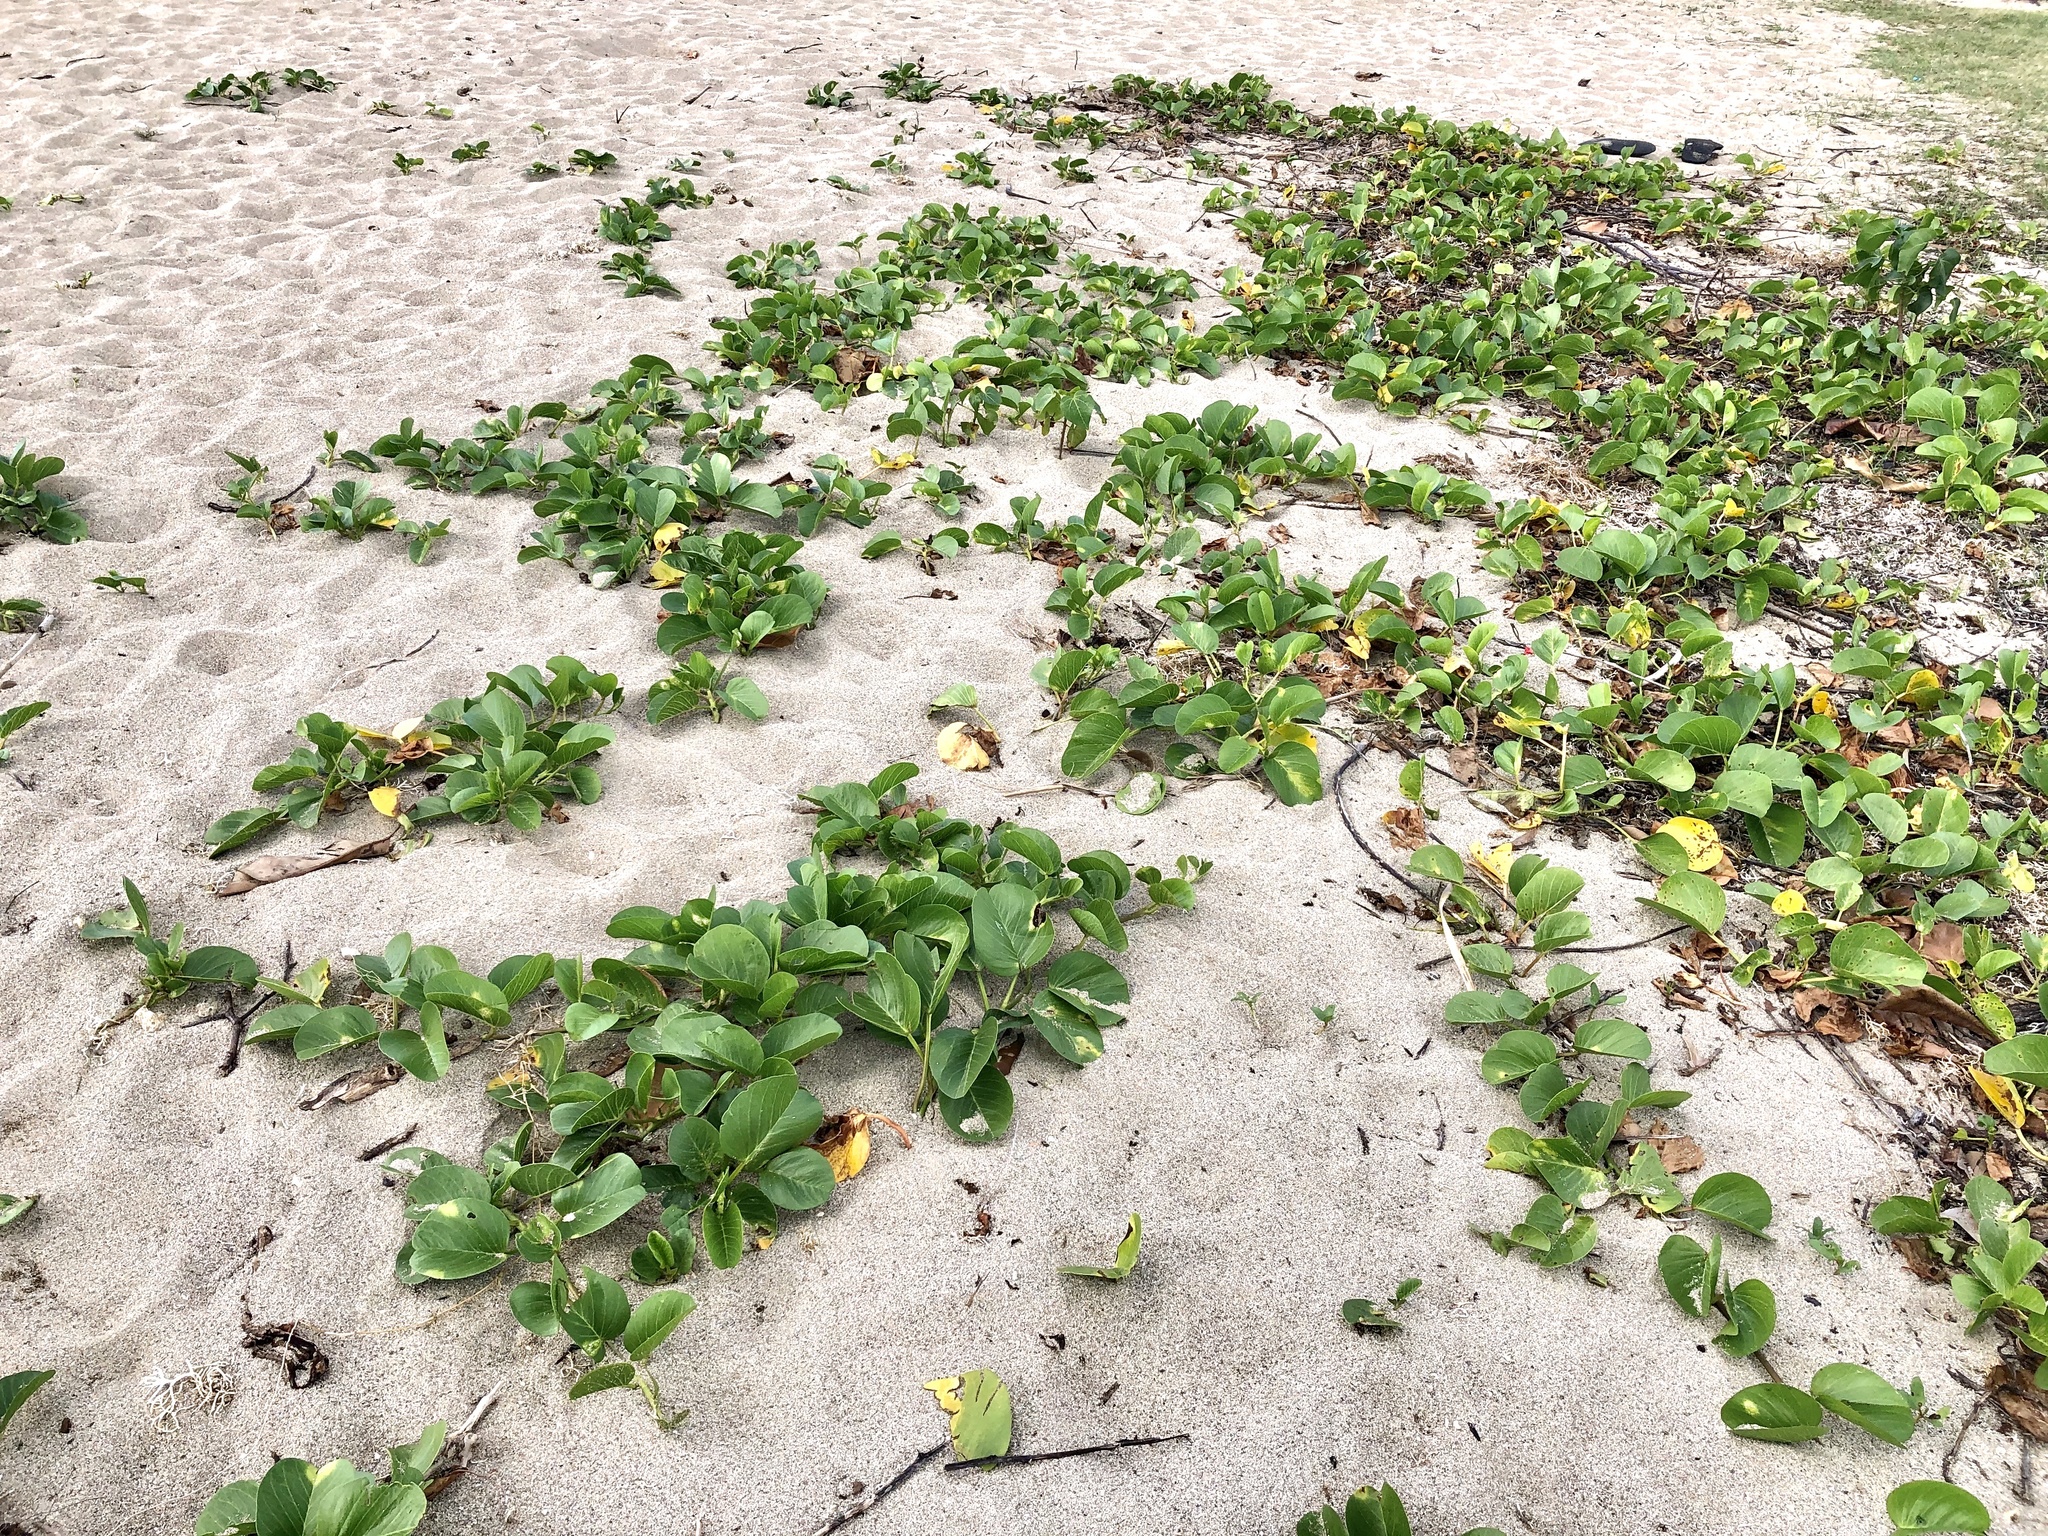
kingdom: Plantae
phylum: Tracheophyta
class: Magnoliopsida
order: Solanales
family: Convolvulaceae
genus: Ipomoea
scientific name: Ipomoea pes-caprae
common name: Beach morning glory
